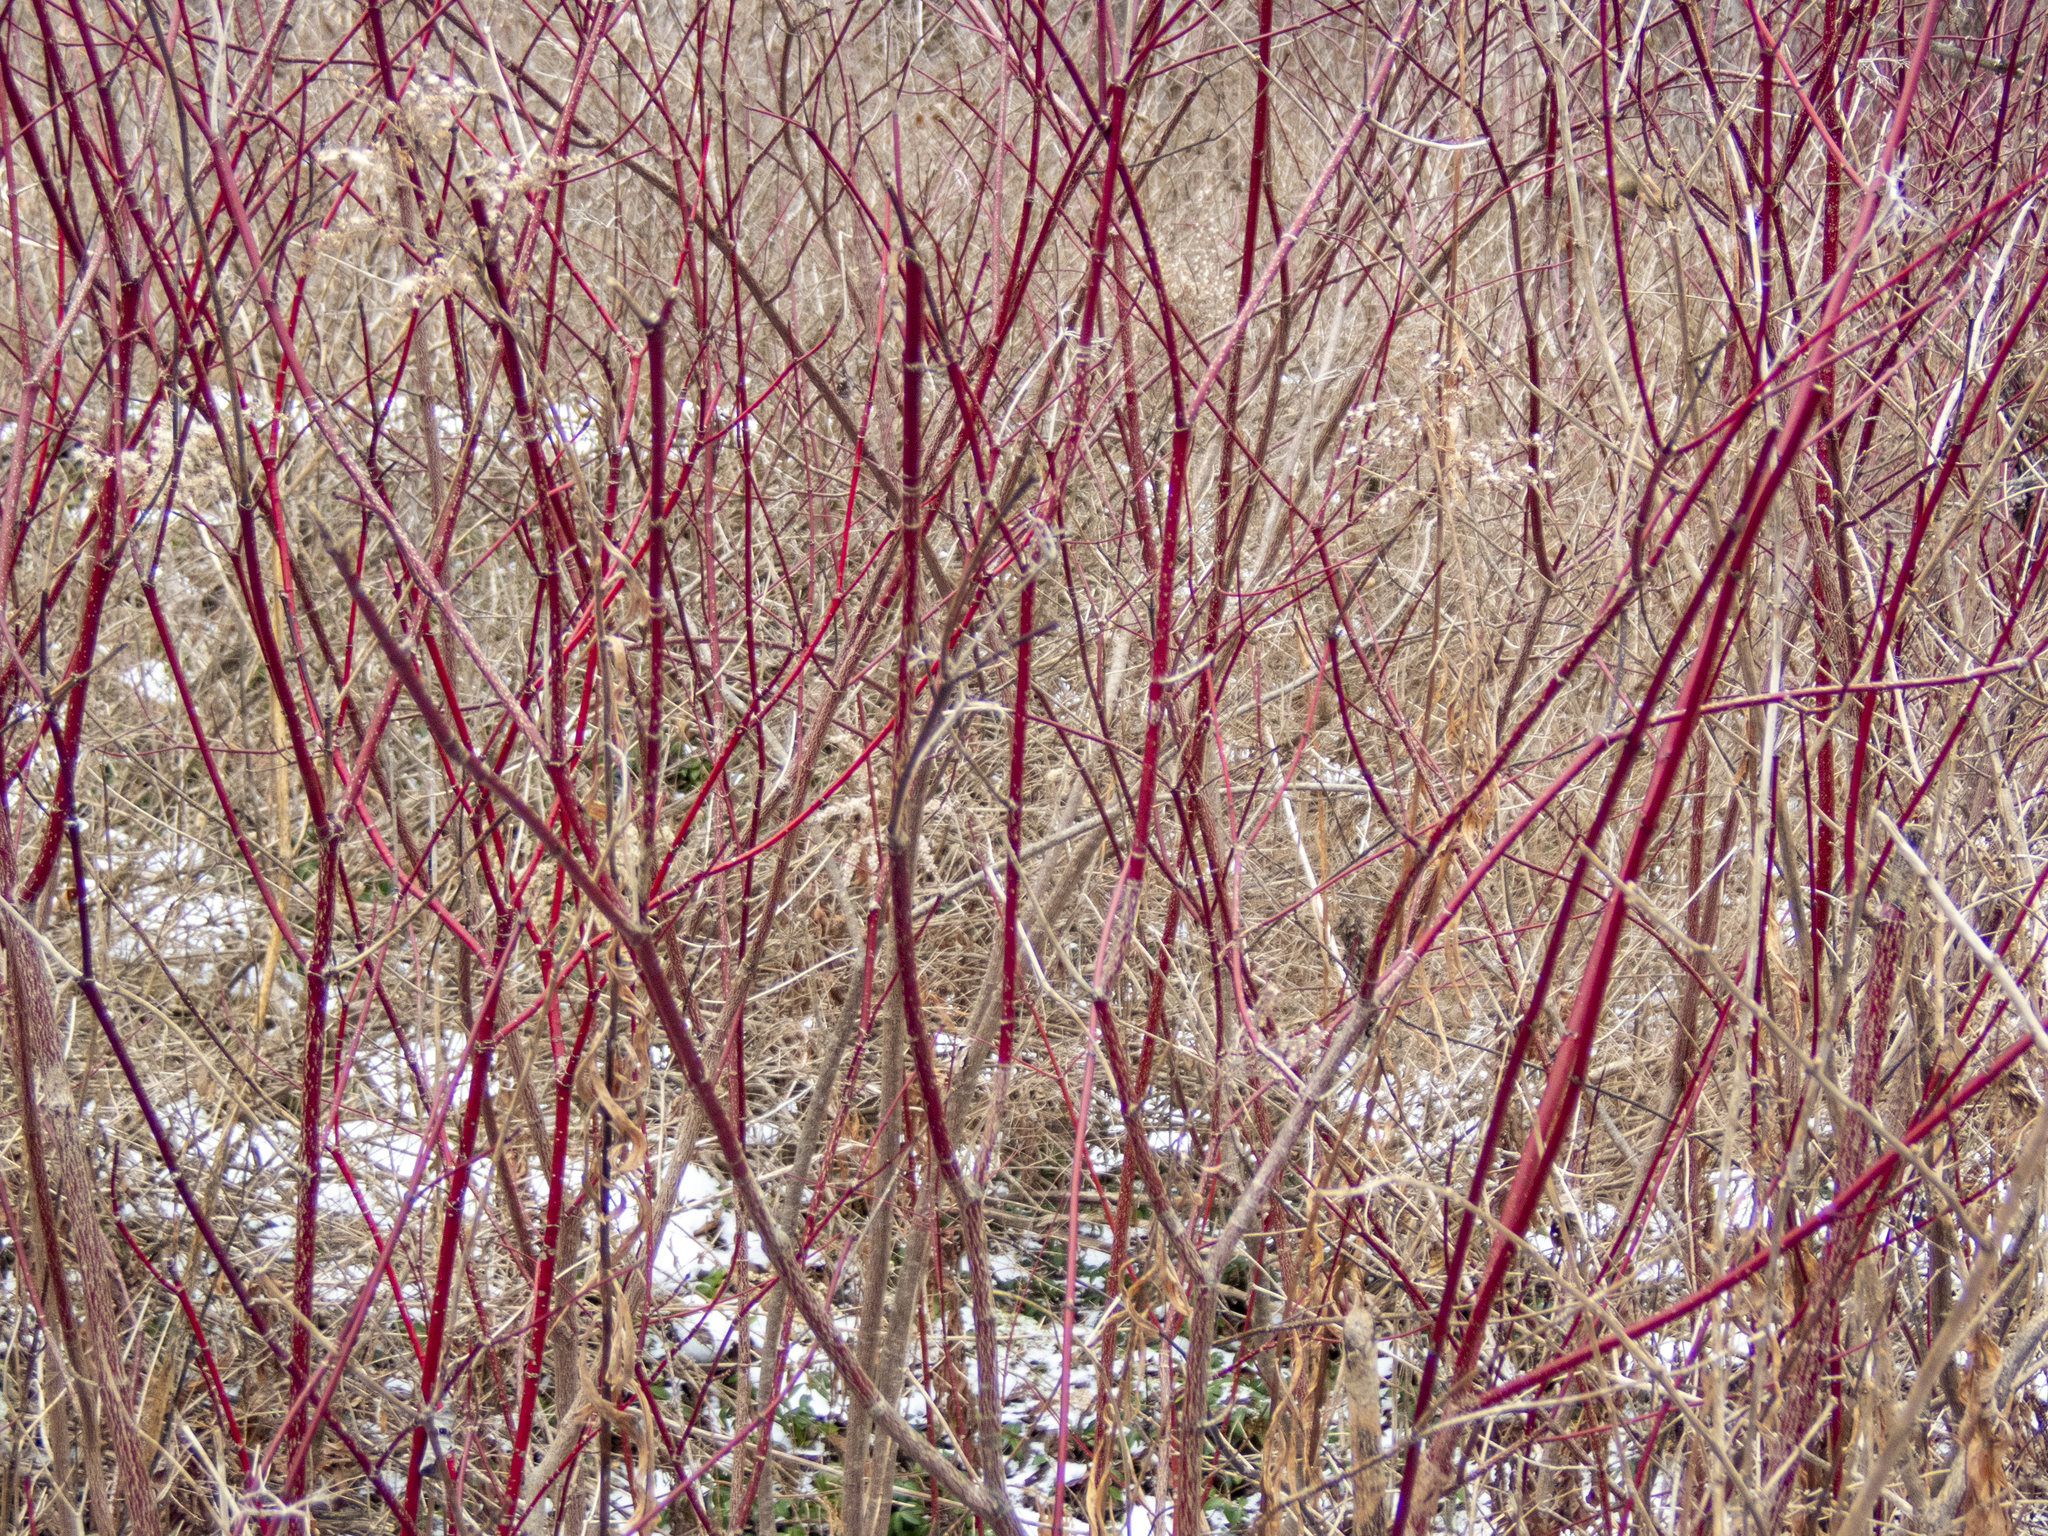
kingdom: Plantae
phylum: Tracheophyta
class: Magnoliopsida
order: Cornales
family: Cornaceae
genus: Cornus
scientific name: Cornus amomum
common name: Silky dogwood
